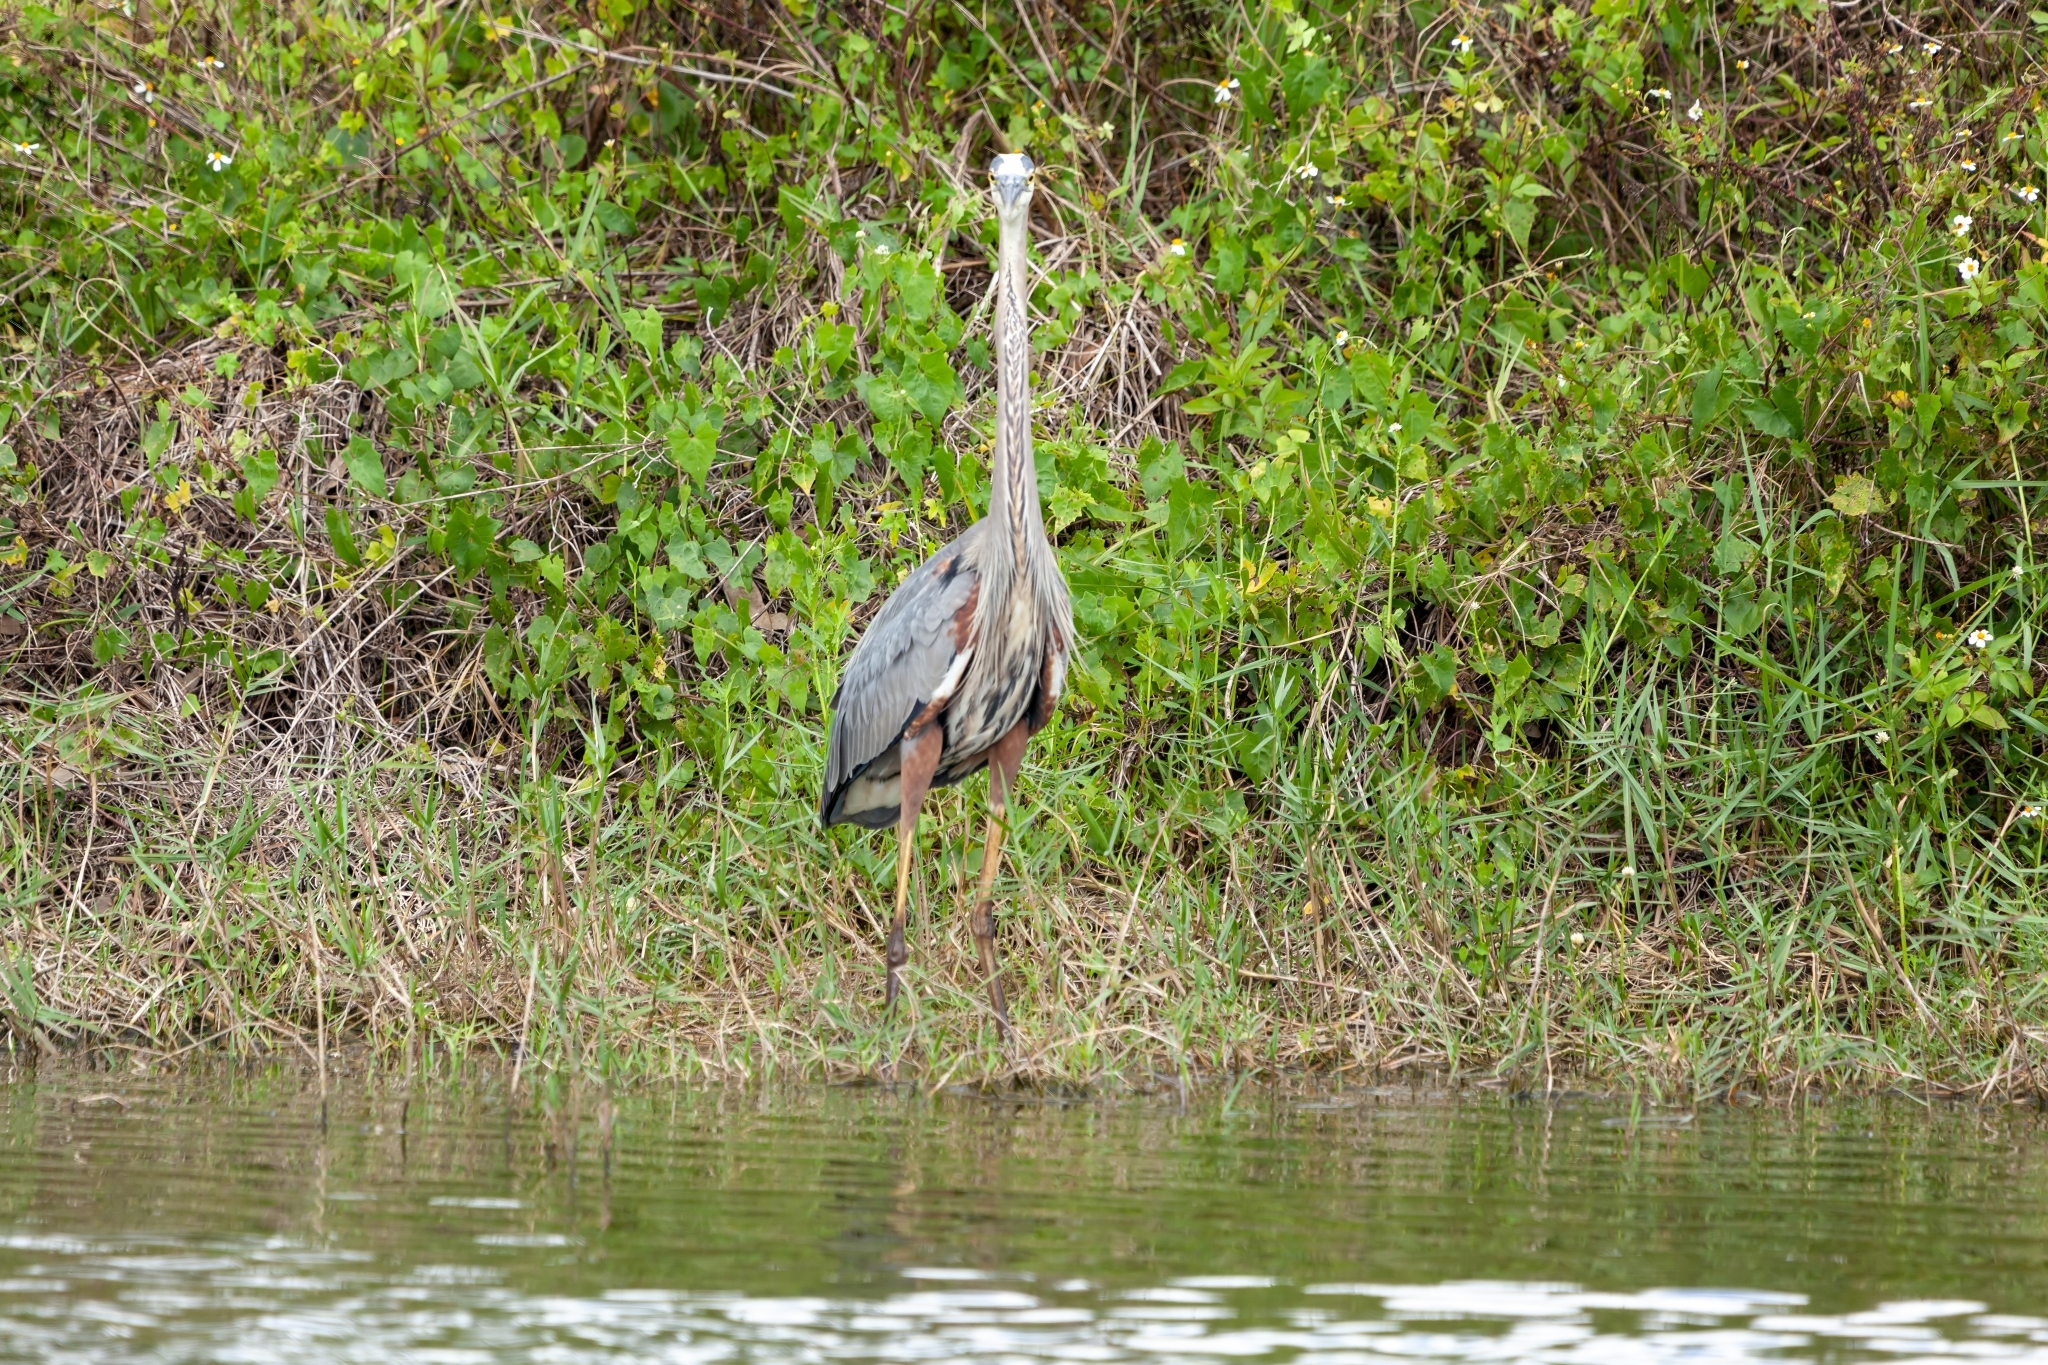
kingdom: Animalia
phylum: Chordata
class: Aves
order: Pelecaniformes
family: Ardeidae
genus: Ardea
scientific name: Ardea herodias
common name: Great blue heron
